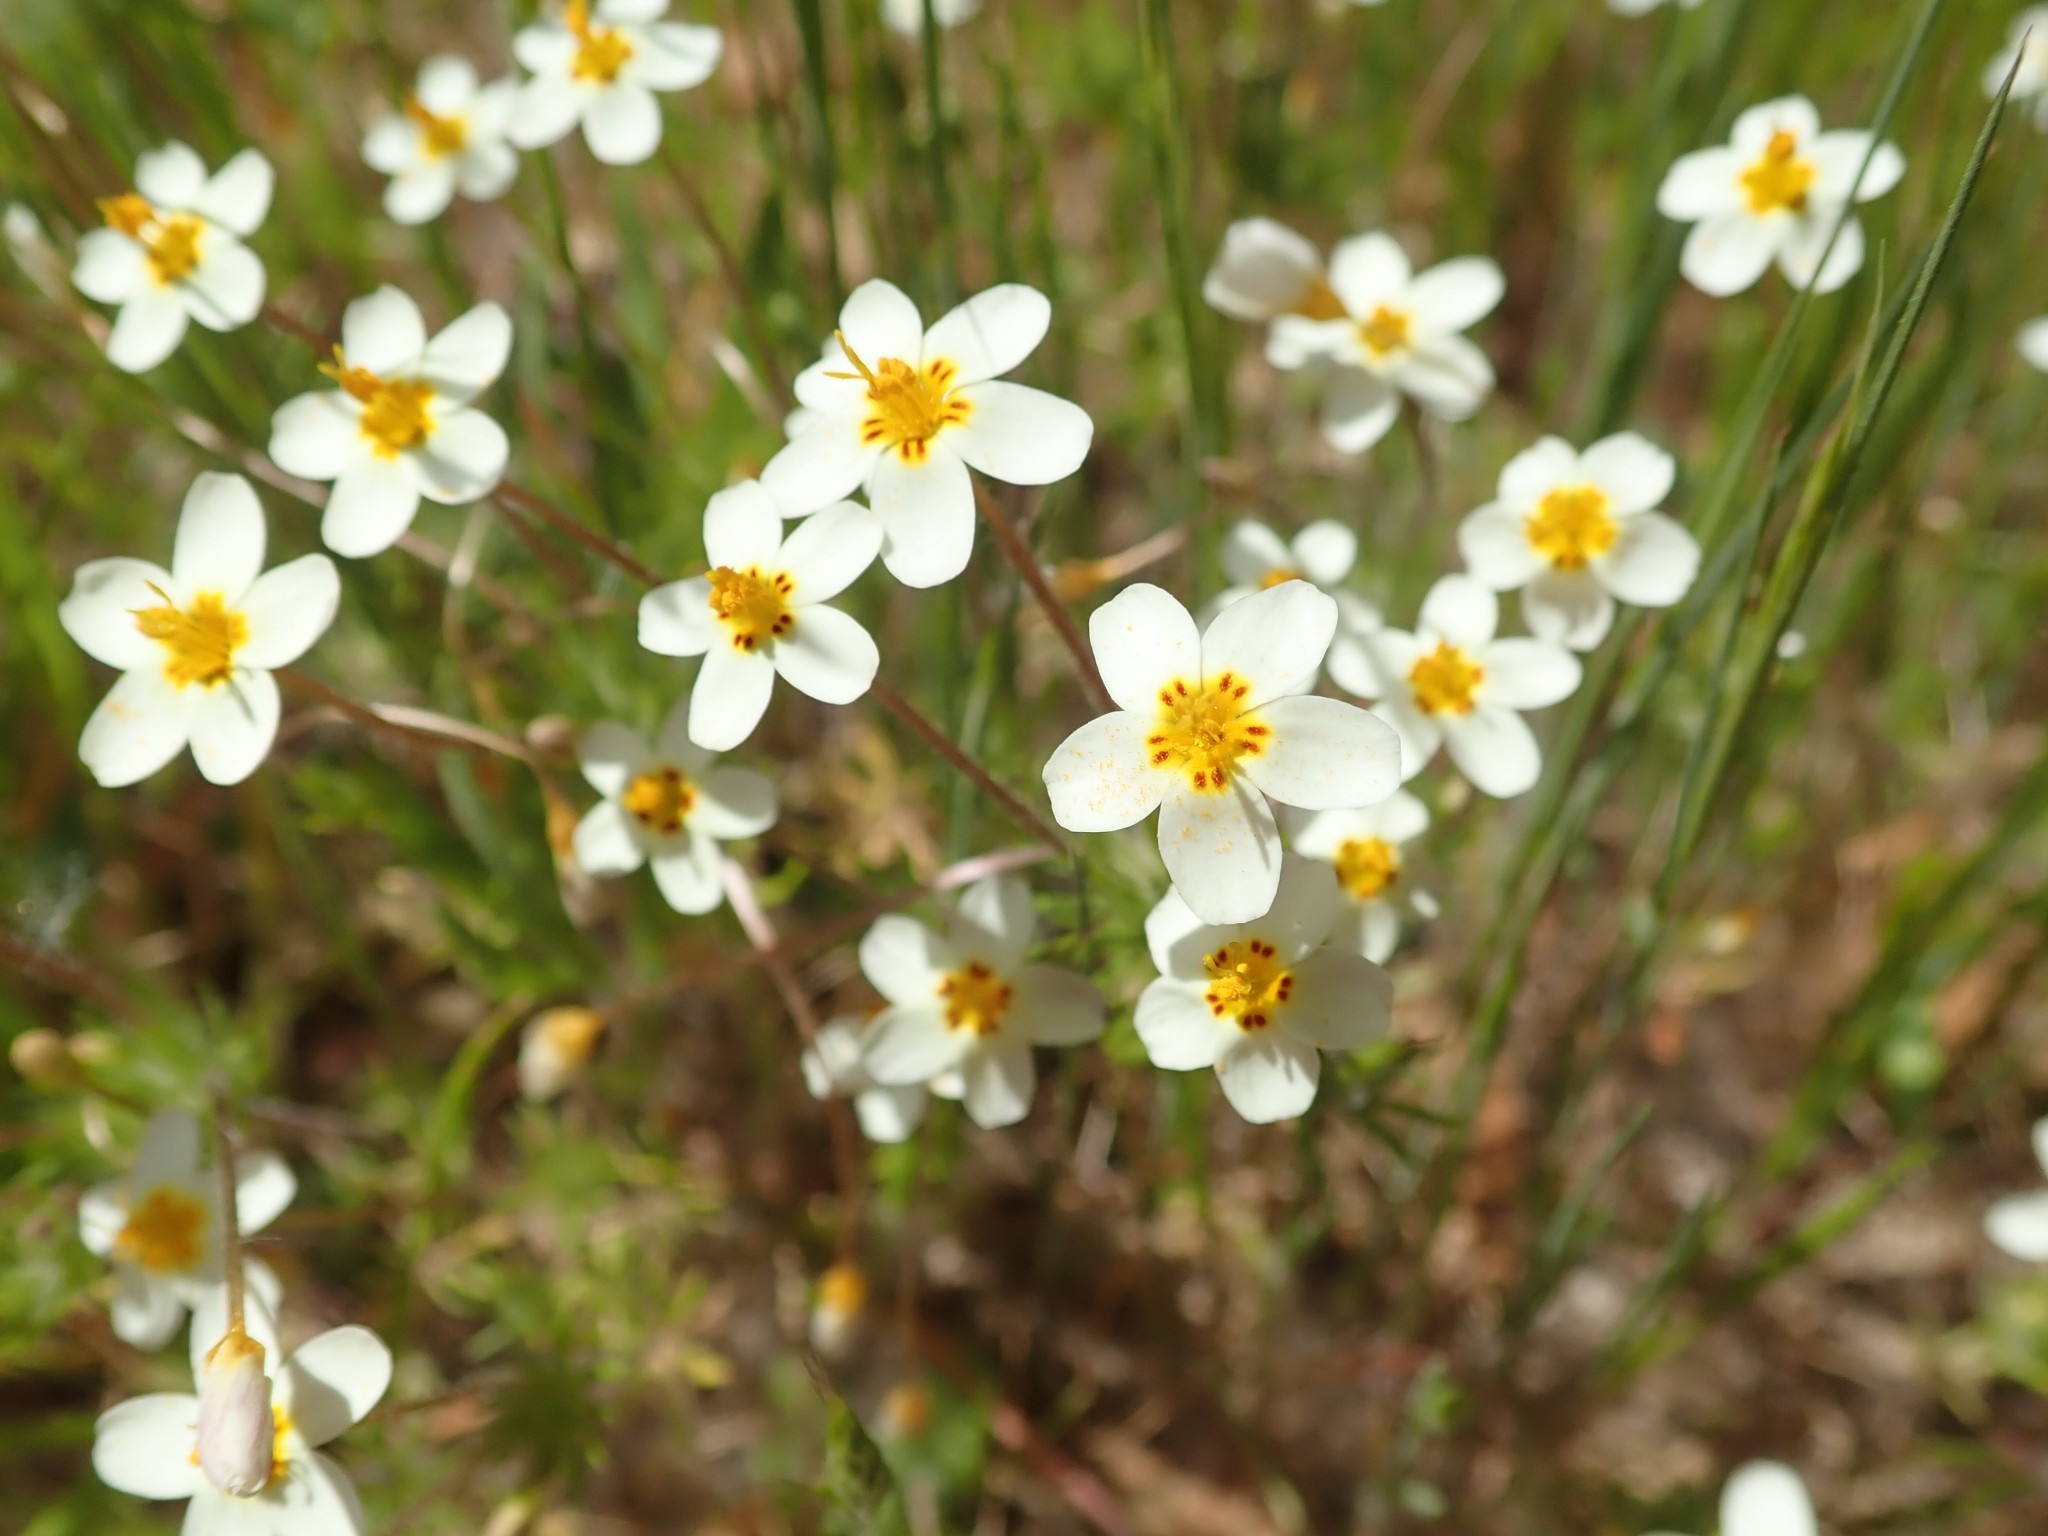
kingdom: Plantae
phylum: Tracheophyta
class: Magnoliopsida
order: Ericales
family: Polemoniaceae
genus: Leptosiphon
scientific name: Leptosiphon parviflorus
